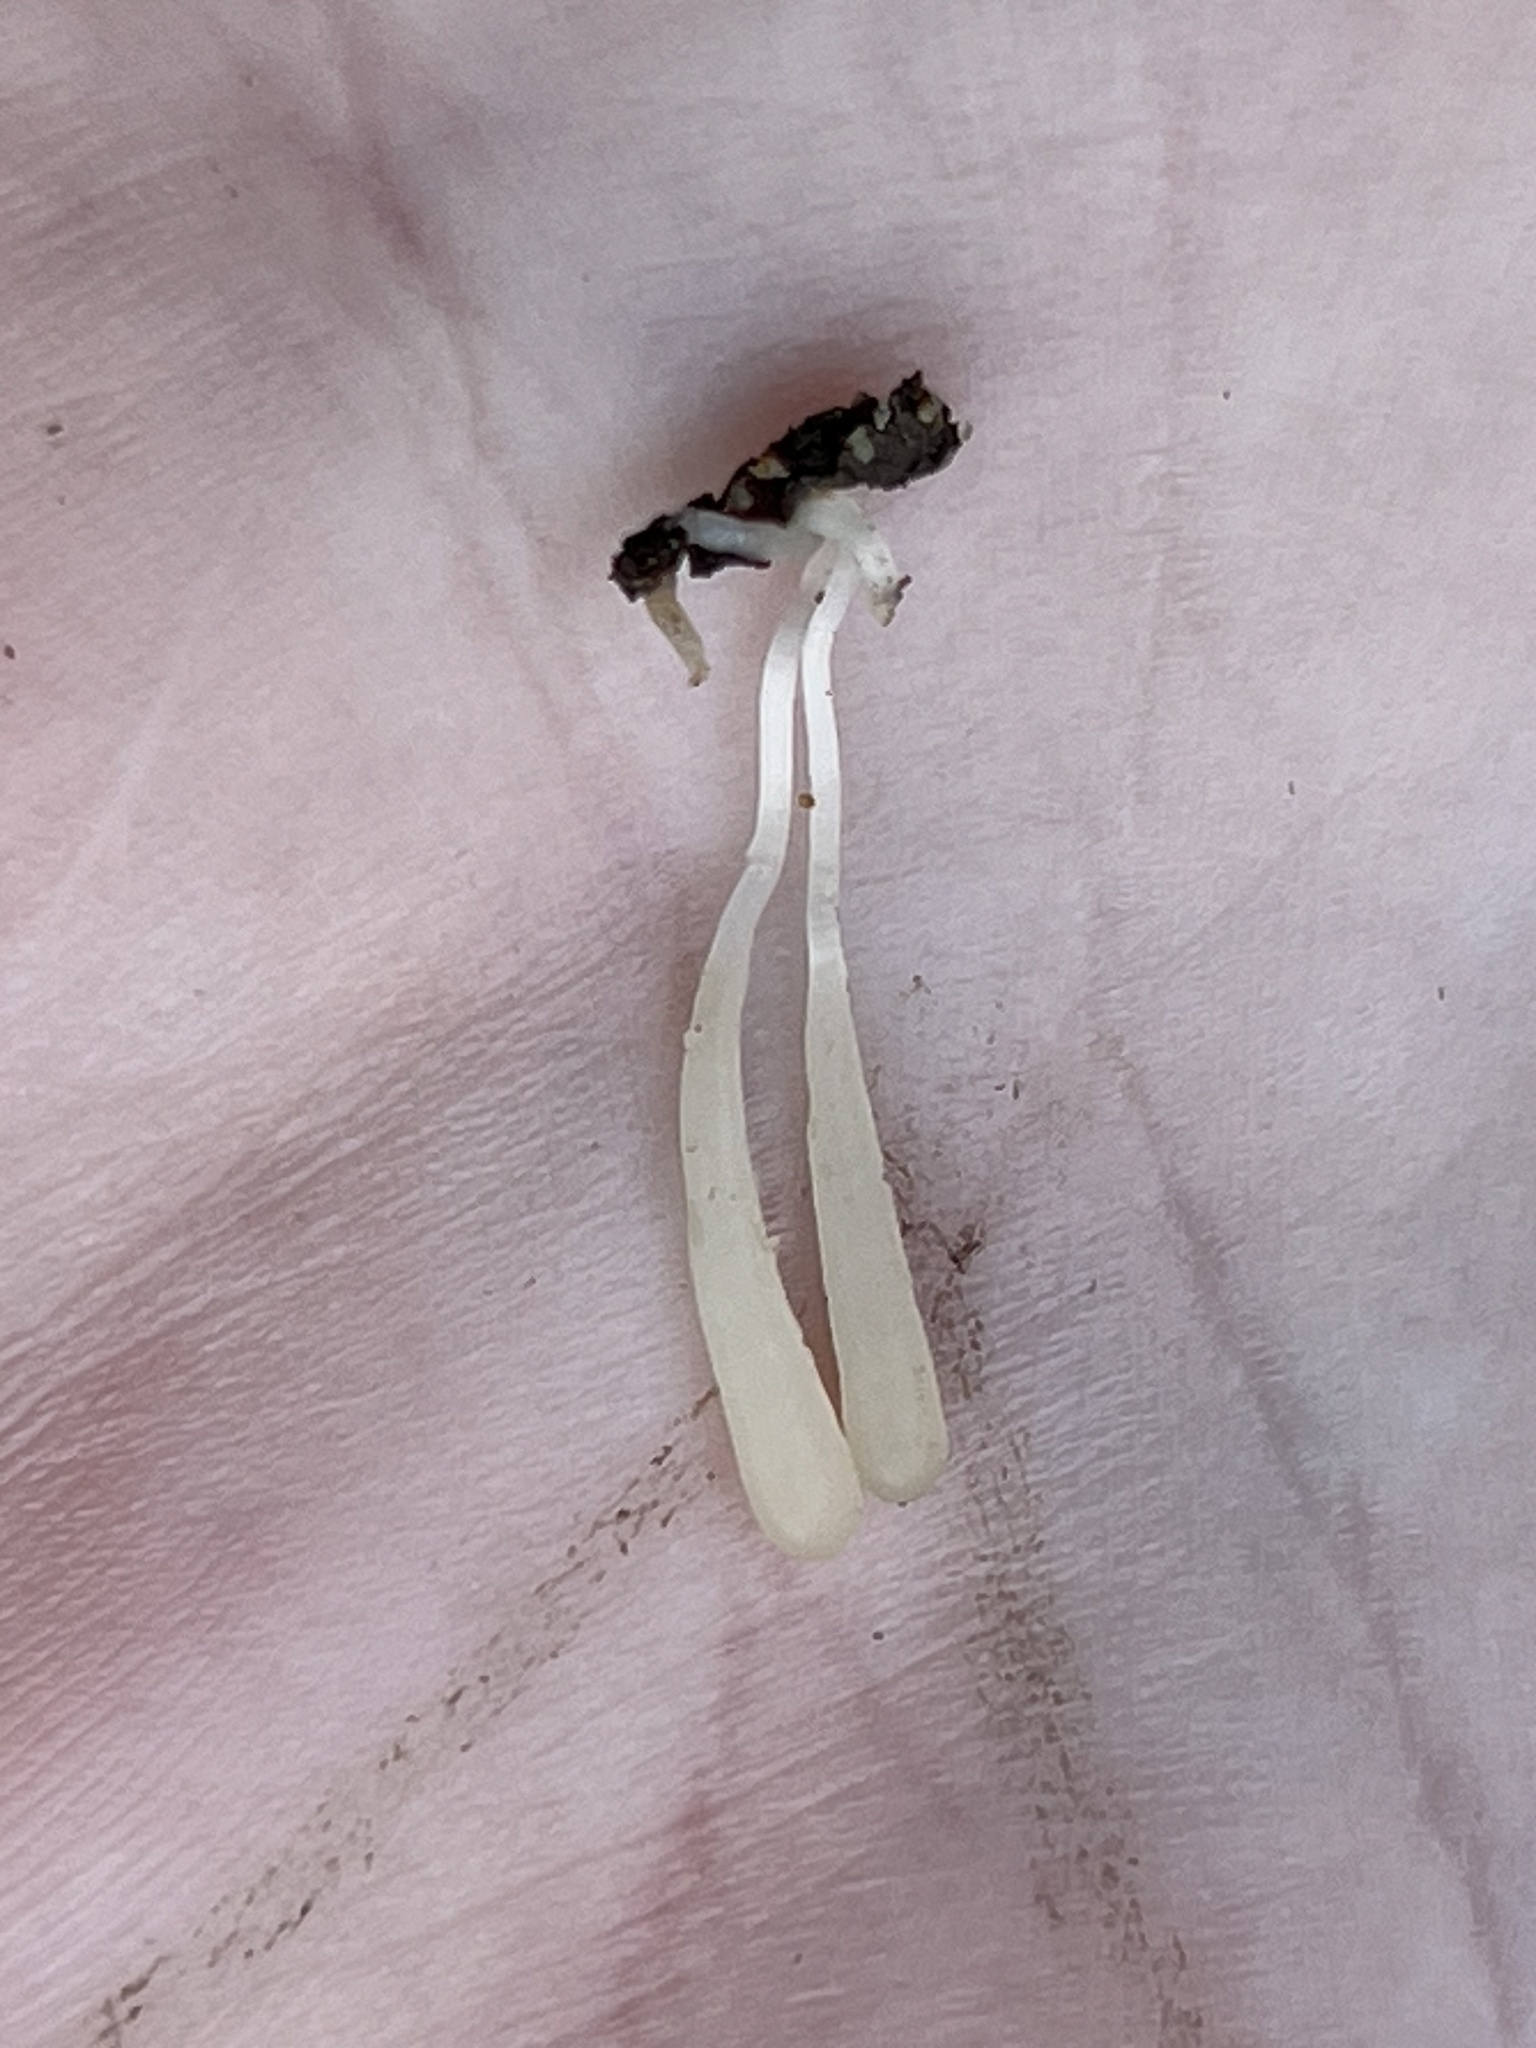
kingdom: Fungi
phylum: Basidiomycota
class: Agaricomycetes
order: Agaricales
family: Clavariaceae
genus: Clavaria
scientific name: Clavaria falcata
